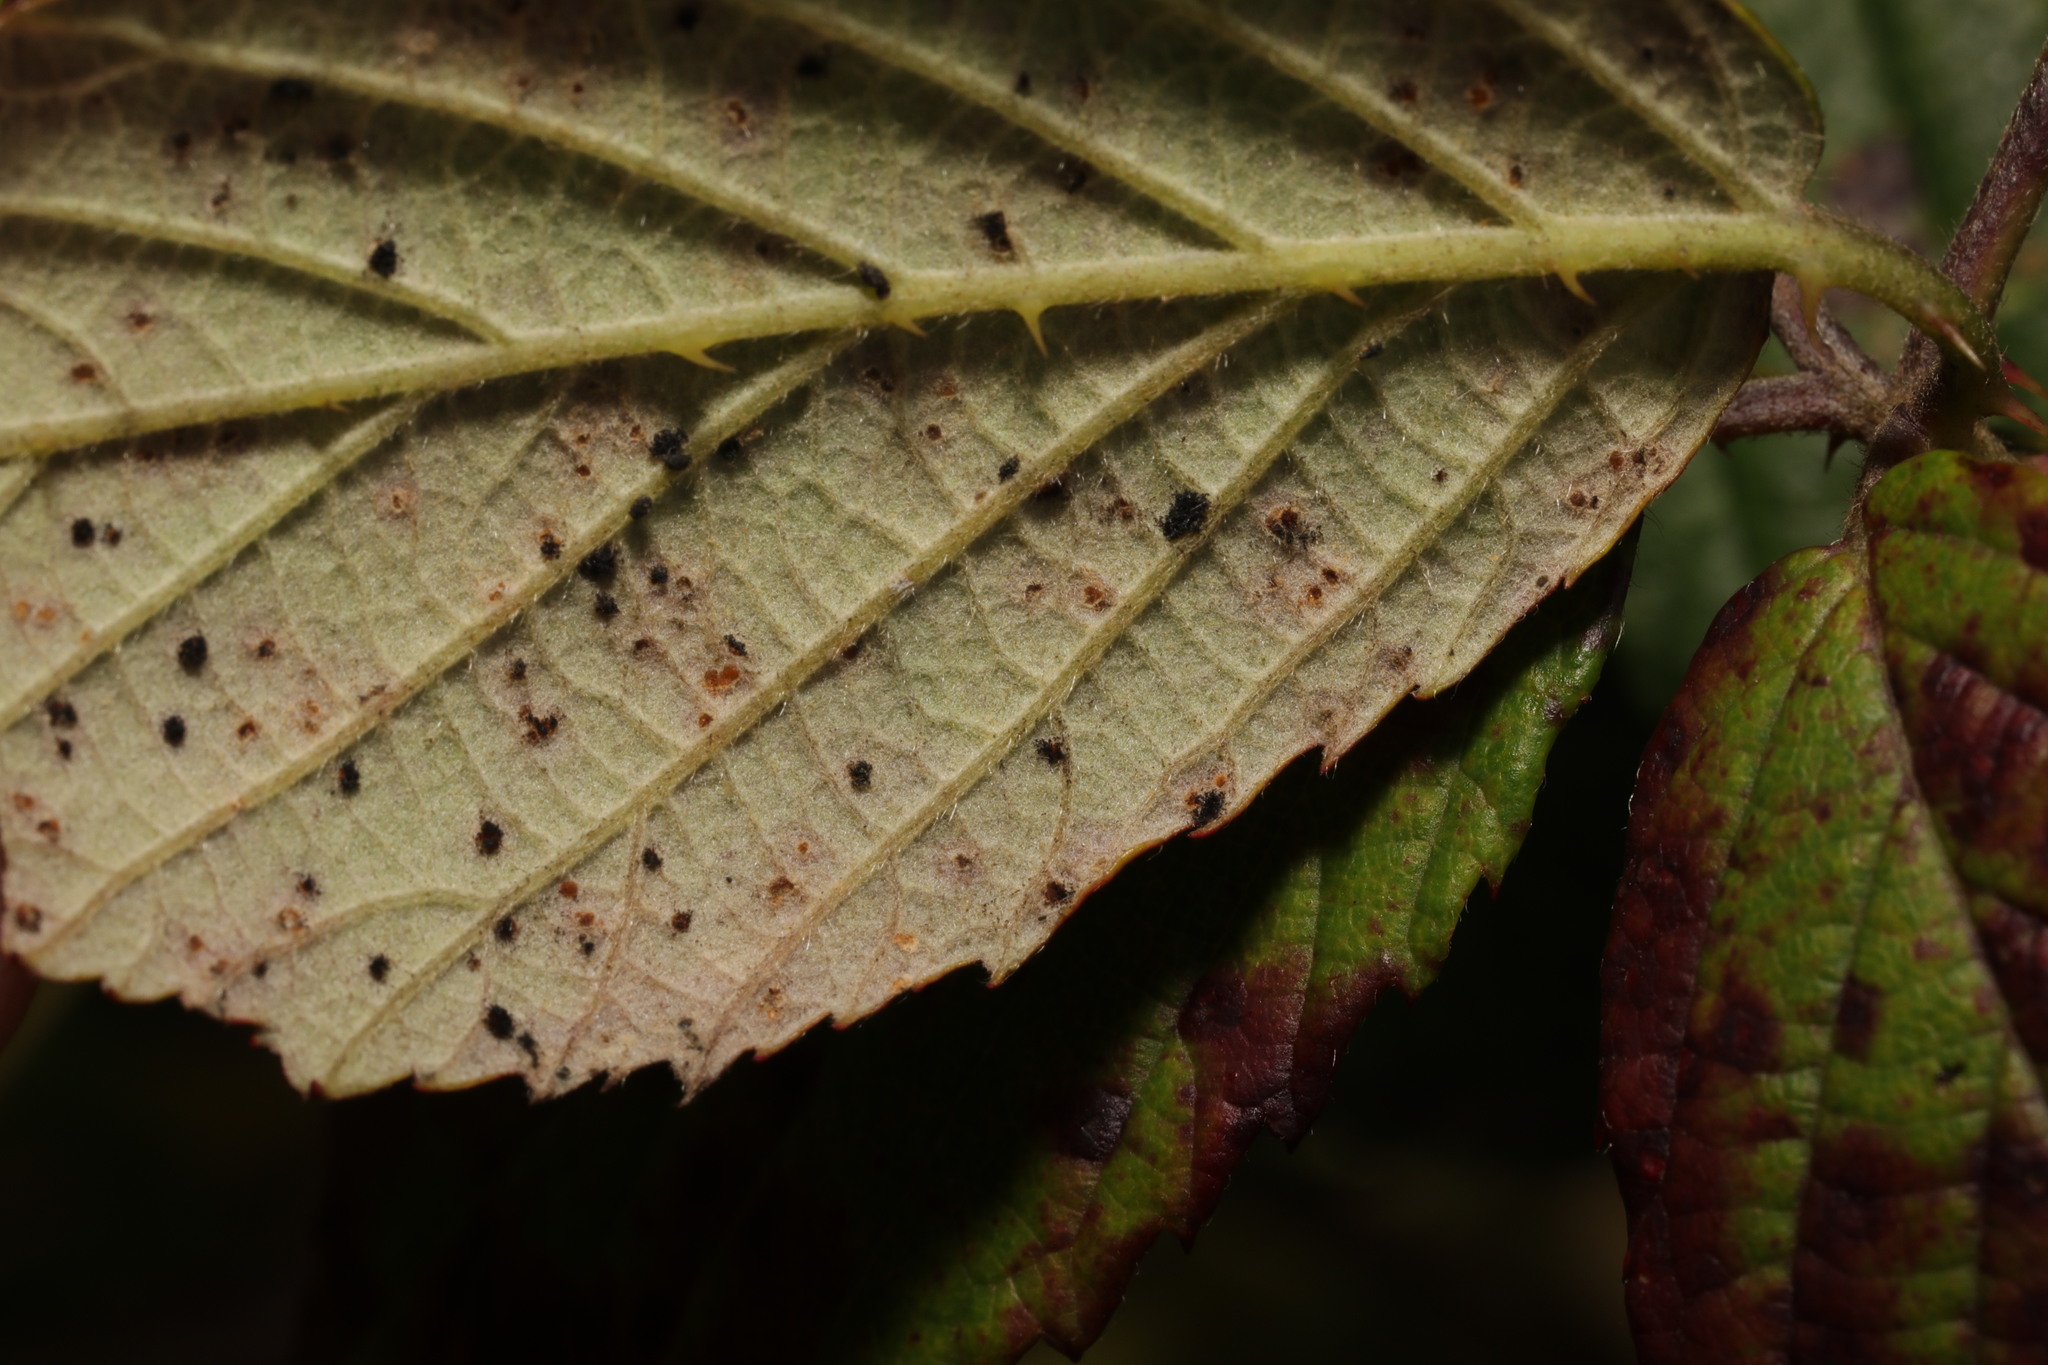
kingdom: Fungi
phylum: Basidiomycota
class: Pucciniomycetes
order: Pucciniales
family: Phragmidiaceae
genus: Phragmidium
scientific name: Phragmidium violaceum
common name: Violet bramble rust
